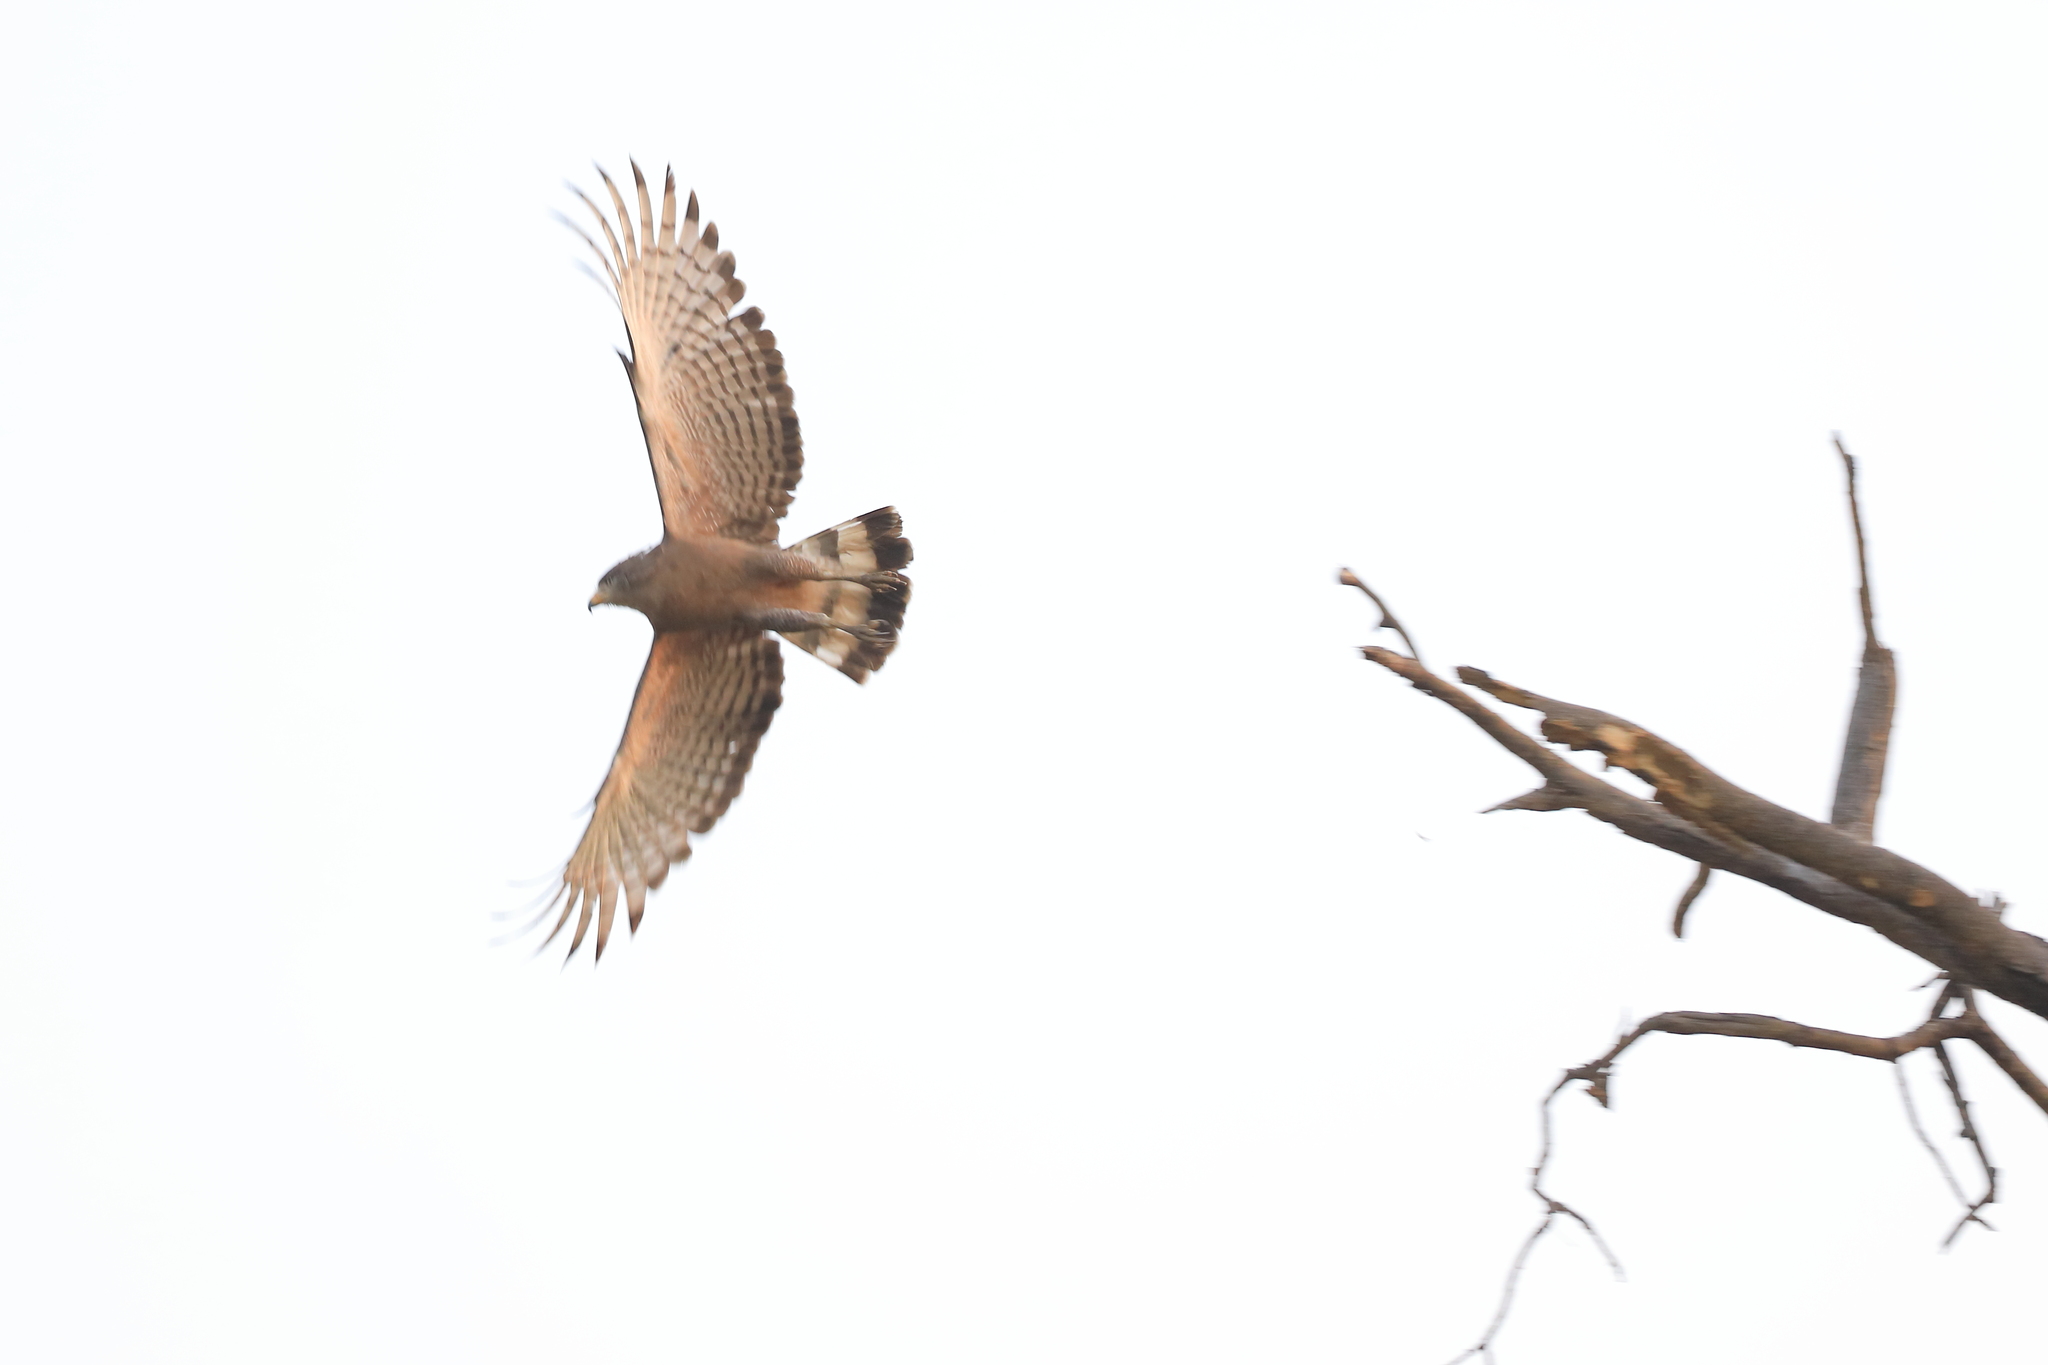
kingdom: Animalia
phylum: Chordata
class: Aves
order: Accipitriformes
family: Accipitridae
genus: Circaetus
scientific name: Circaetus cinerascens
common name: Western banded snake eagle
